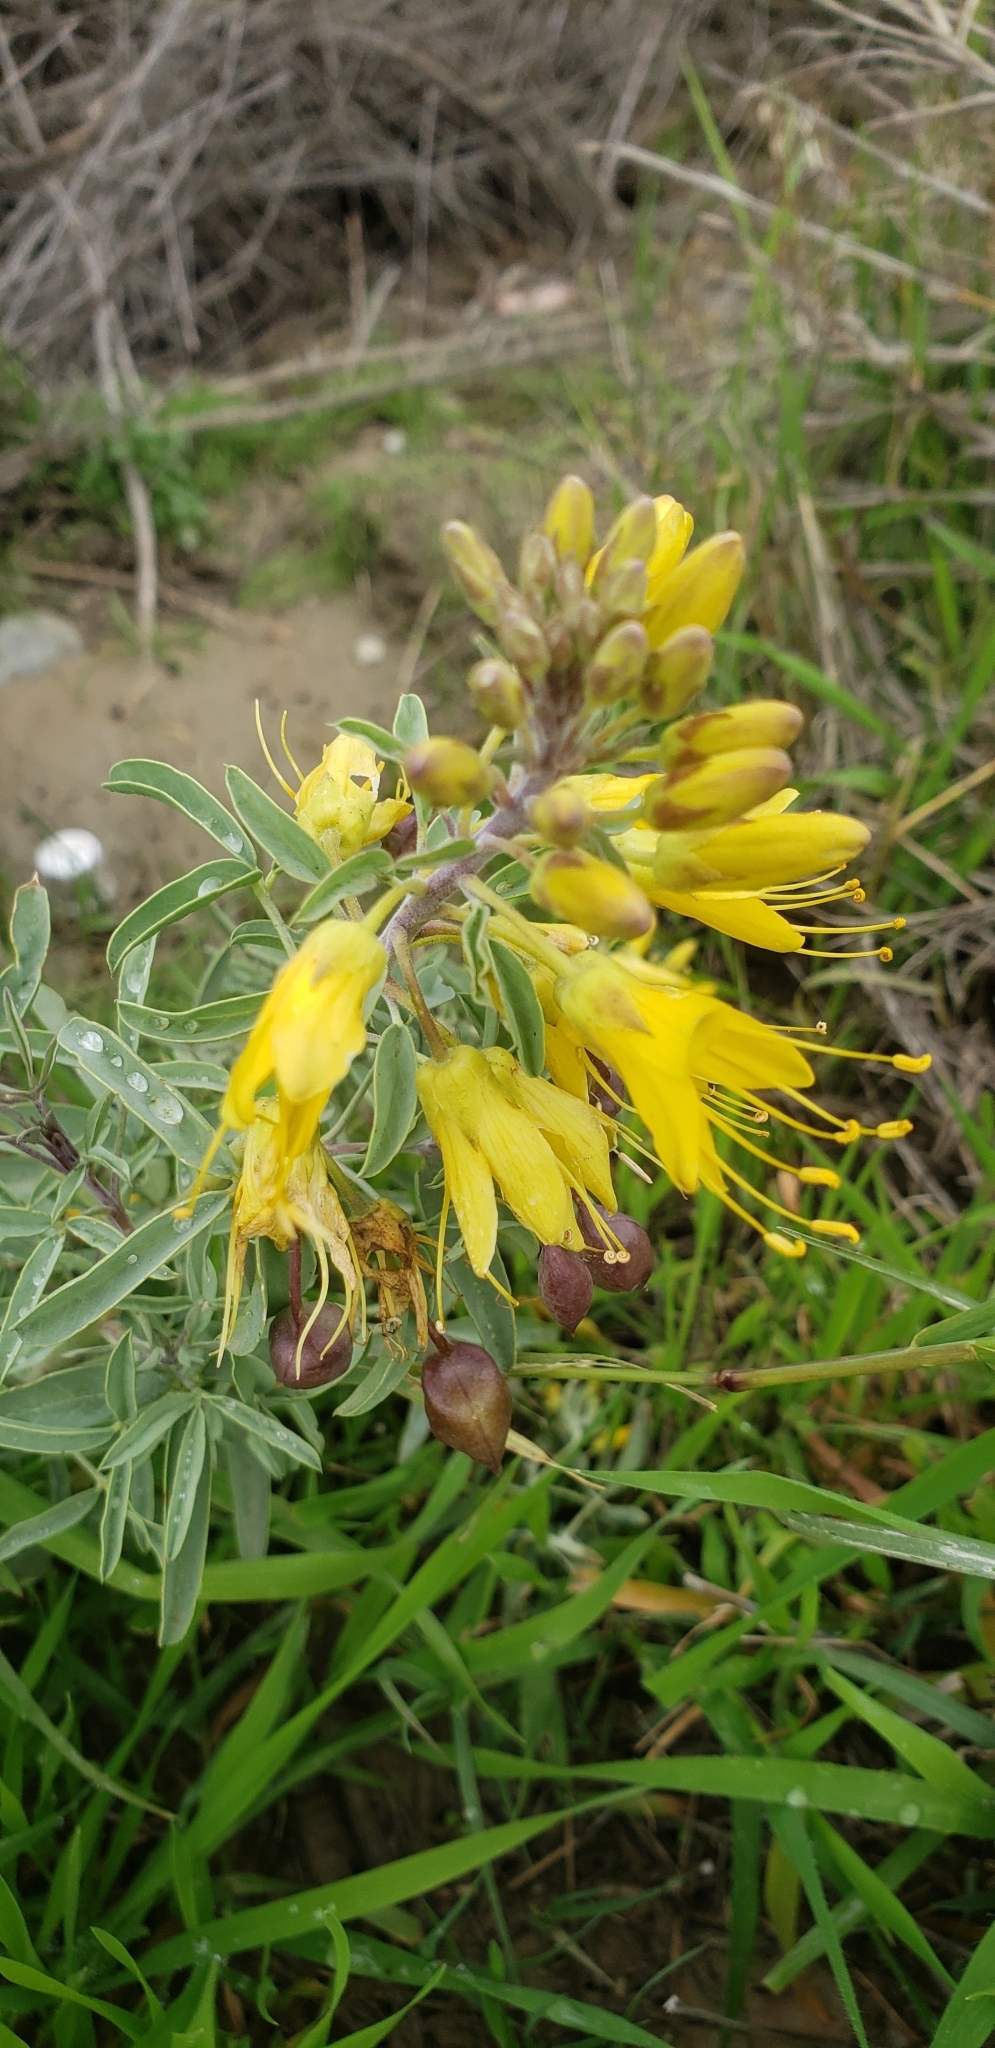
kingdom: Plantae
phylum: Tracheophyta
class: Magnoliopsida
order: Brassicales
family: Cleomaceae
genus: Cleomella
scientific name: Cleomella arborea
